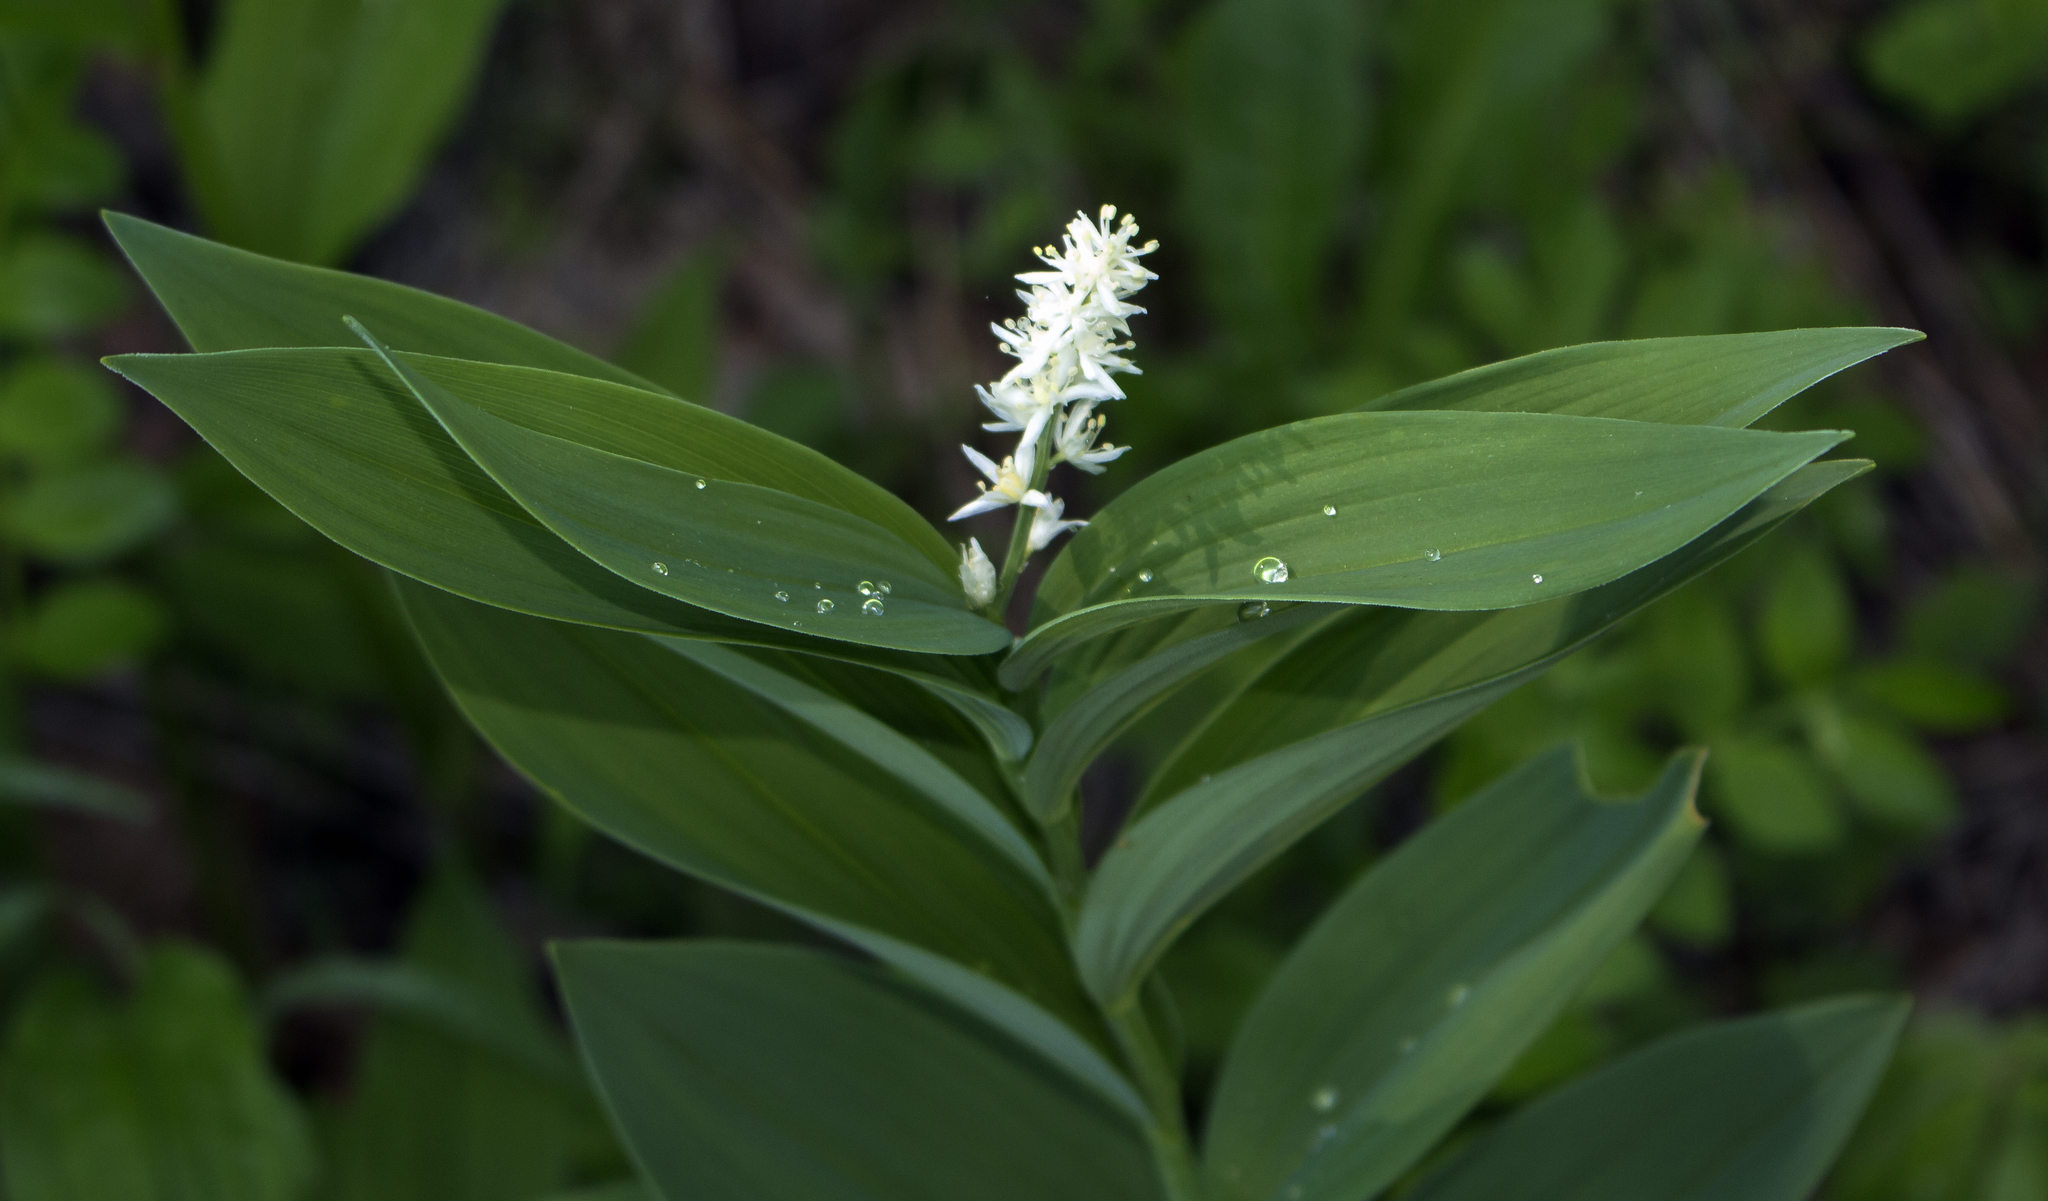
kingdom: Plantae
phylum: Tracheophyta
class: Liliopsida
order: Asparagales
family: Asparagaceae
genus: Maianthemum
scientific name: Maianthemum stellatum
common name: Little false solomon's seal
